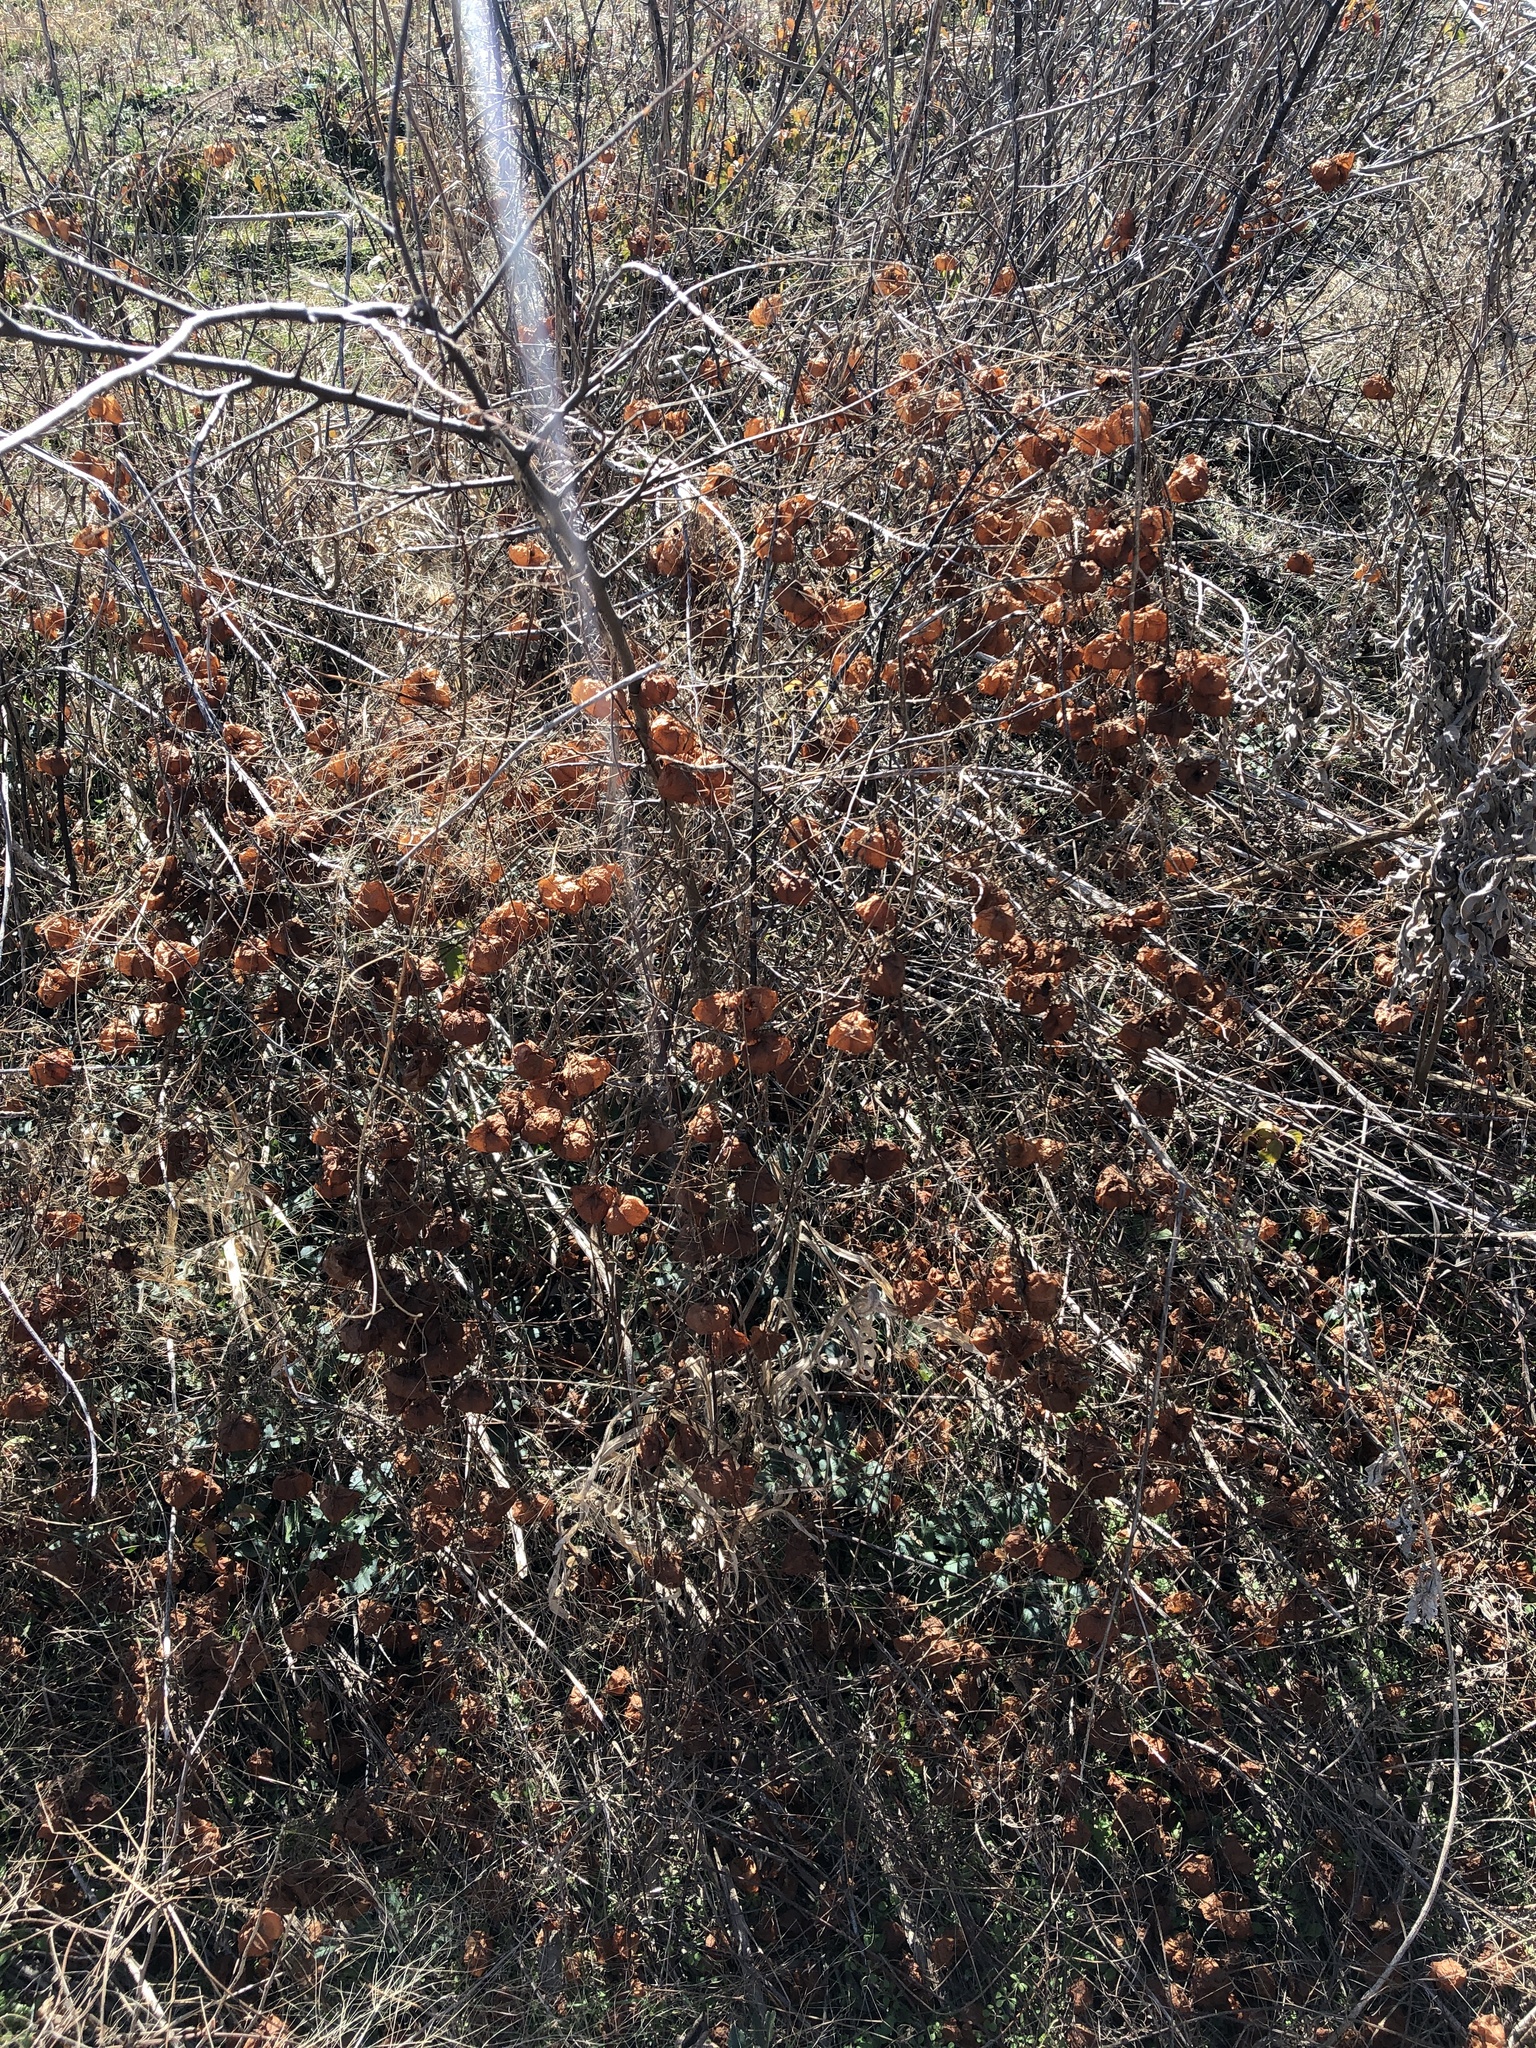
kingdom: Plantae
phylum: Tracheophyta
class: Magnoliopsida
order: Sapindales
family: Sapindaceae
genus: Cardiospermum
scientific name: Cardiospermum halicacabum
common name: Balloon vine
